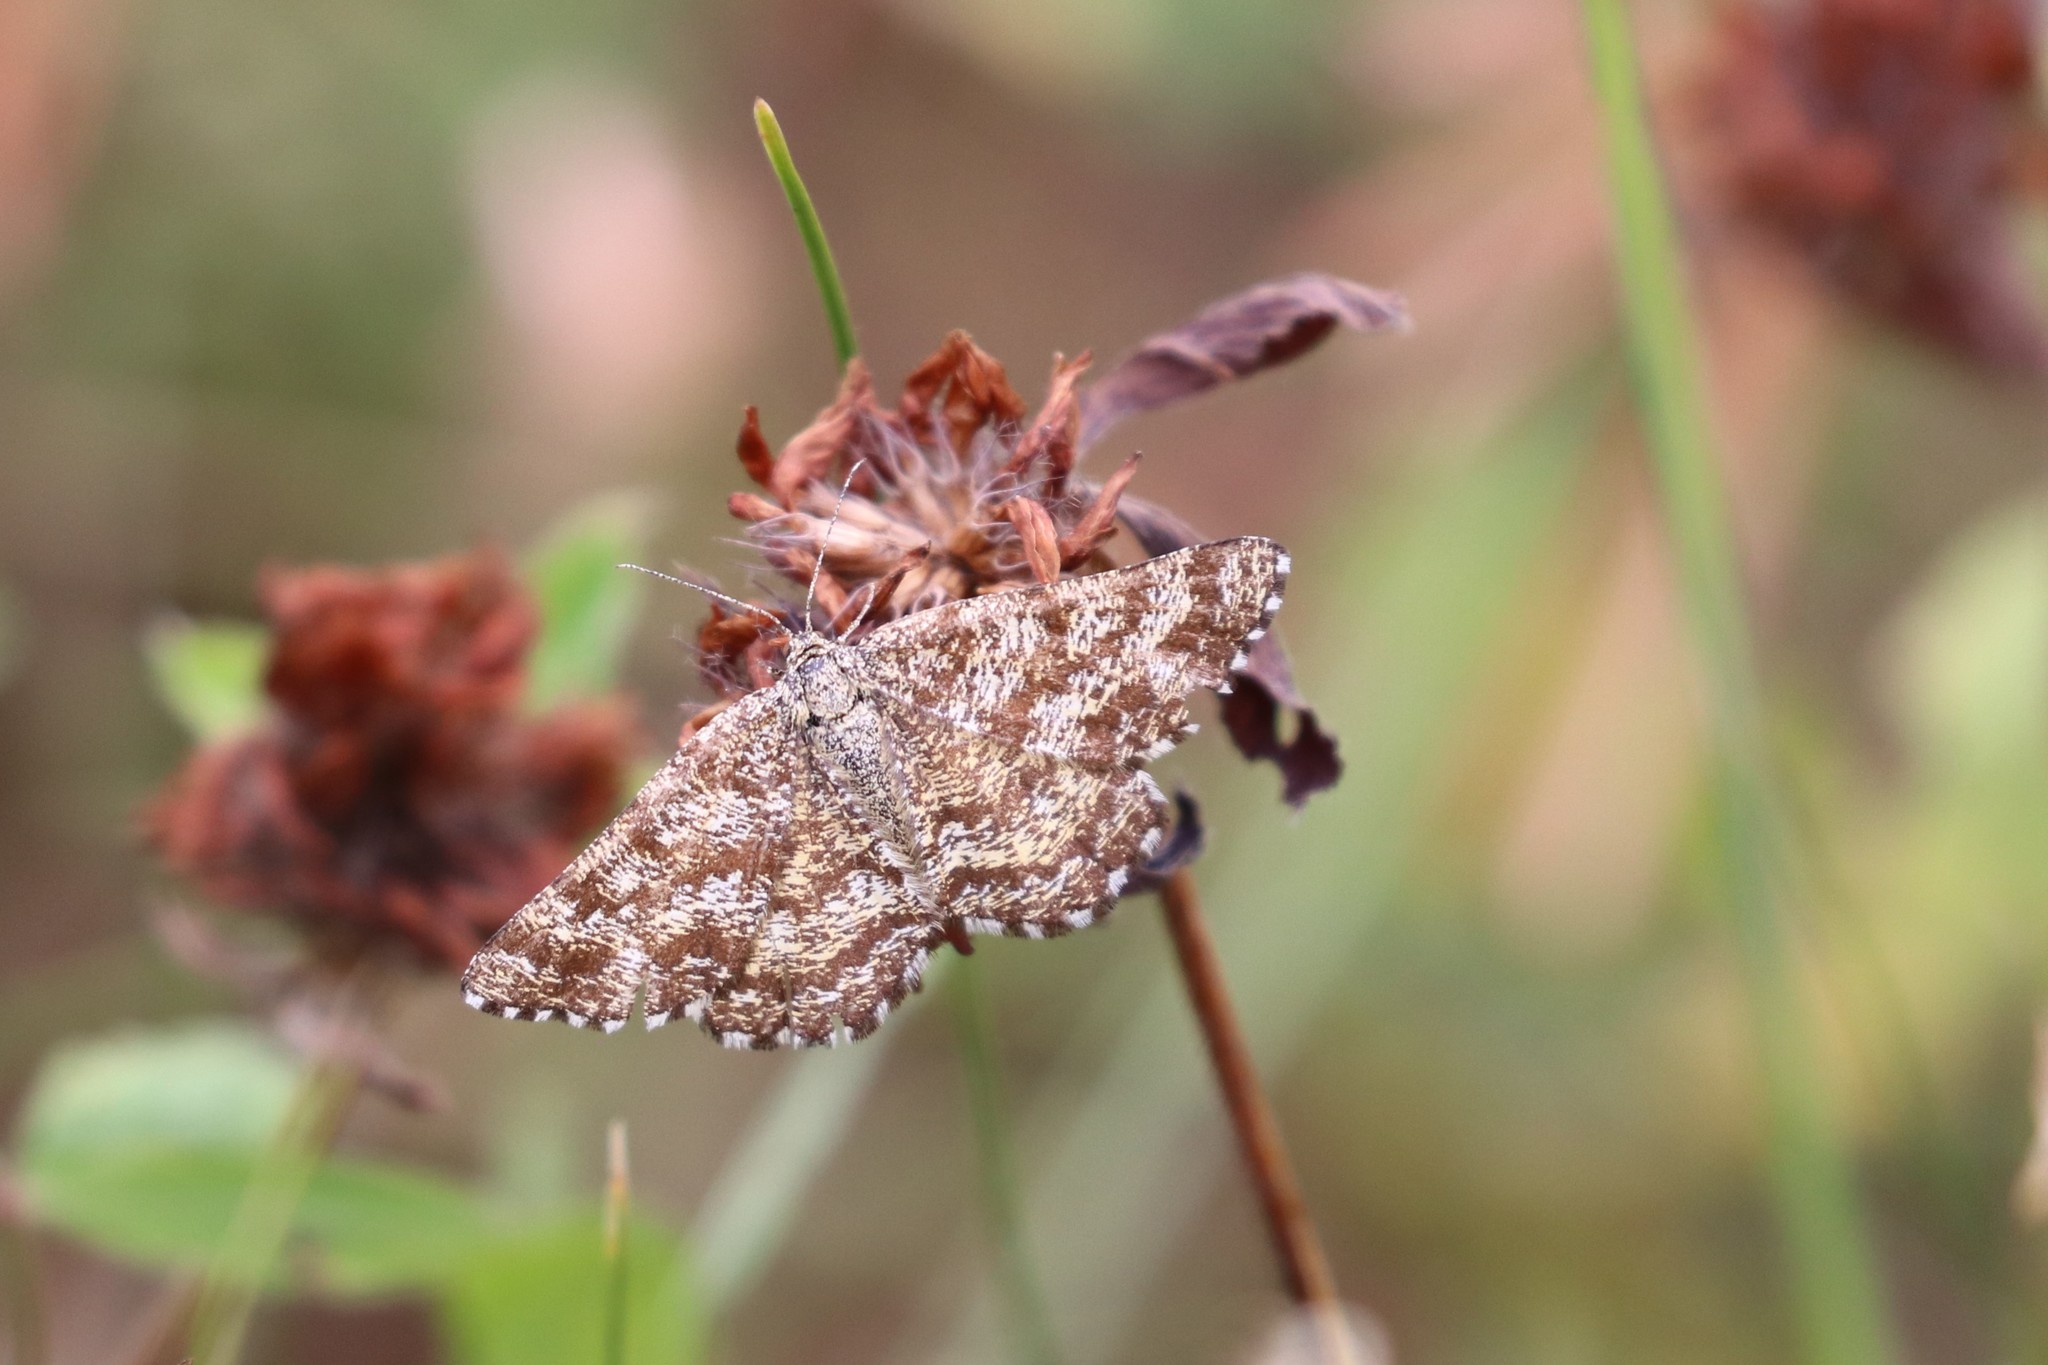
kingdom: Animalia
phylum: Arthropoda
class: Insecta
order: Lepidoptera
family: Geometridae
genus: Ematurga
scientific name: Ematurga atomaria
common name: Common heath
